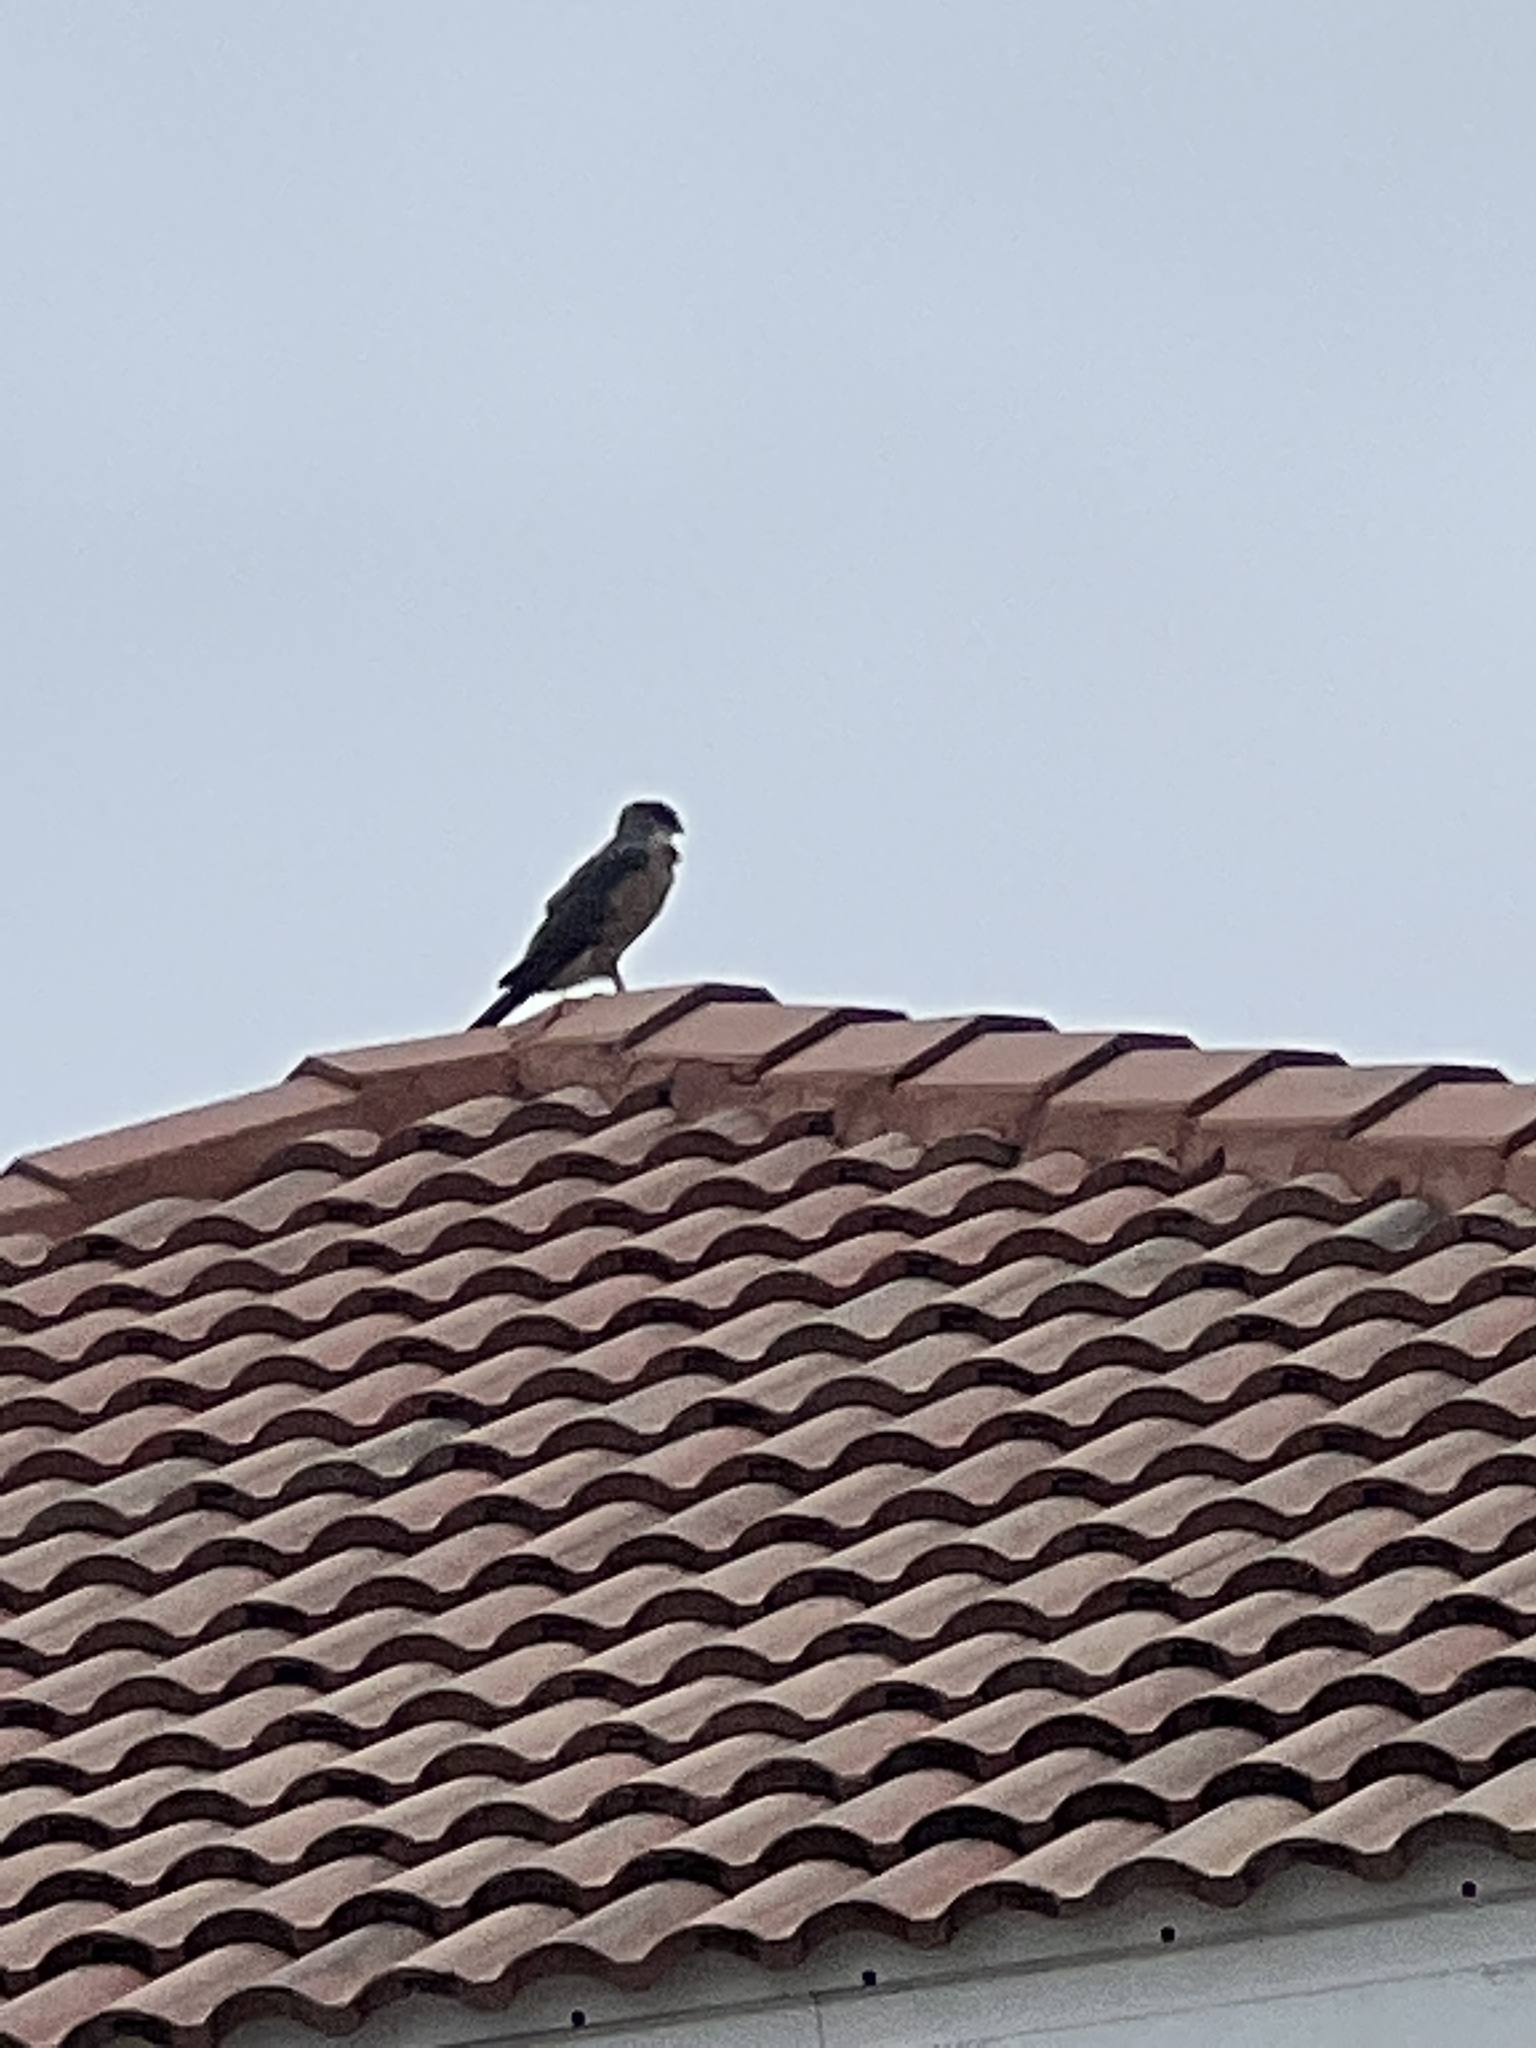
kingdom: Animalia
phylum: Chordata
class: Aves
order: Accipitriformes
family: Accipitridae
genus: Accipiter
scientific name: Accipiter cooperii
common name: Cooper's hawk
